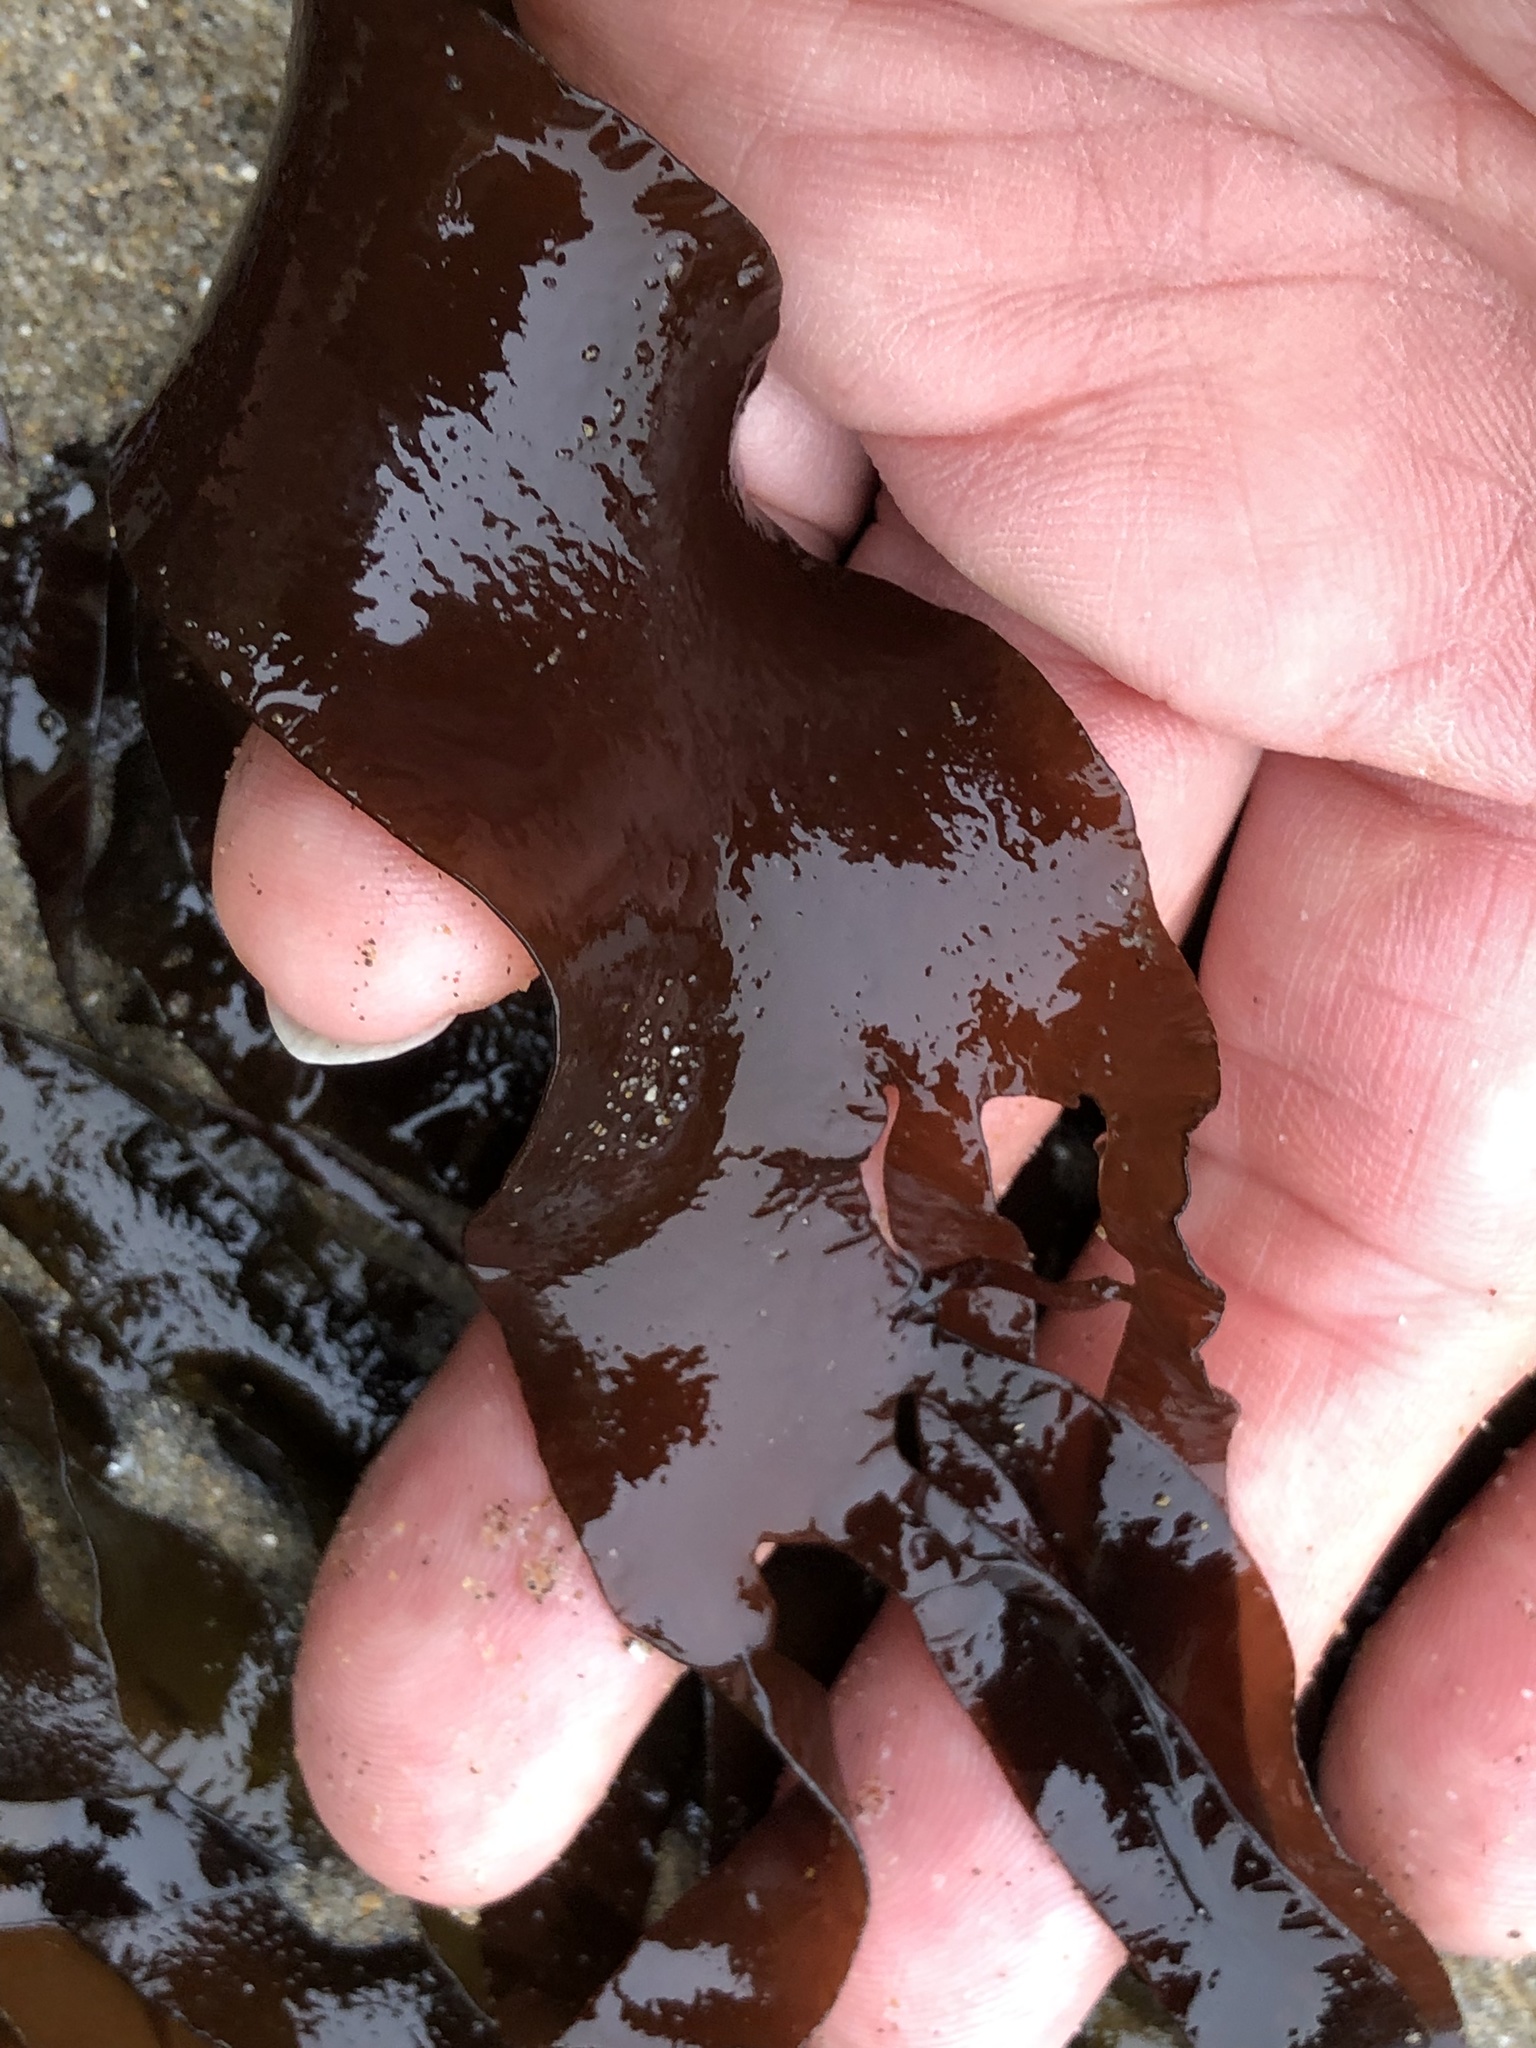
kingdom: Plantae
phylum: Rhodophyta
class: Florideophyceae
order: Halymeniales
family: Halymeniaceae
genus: Halymenia
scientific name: Halymenia Grateloupia doryphora
